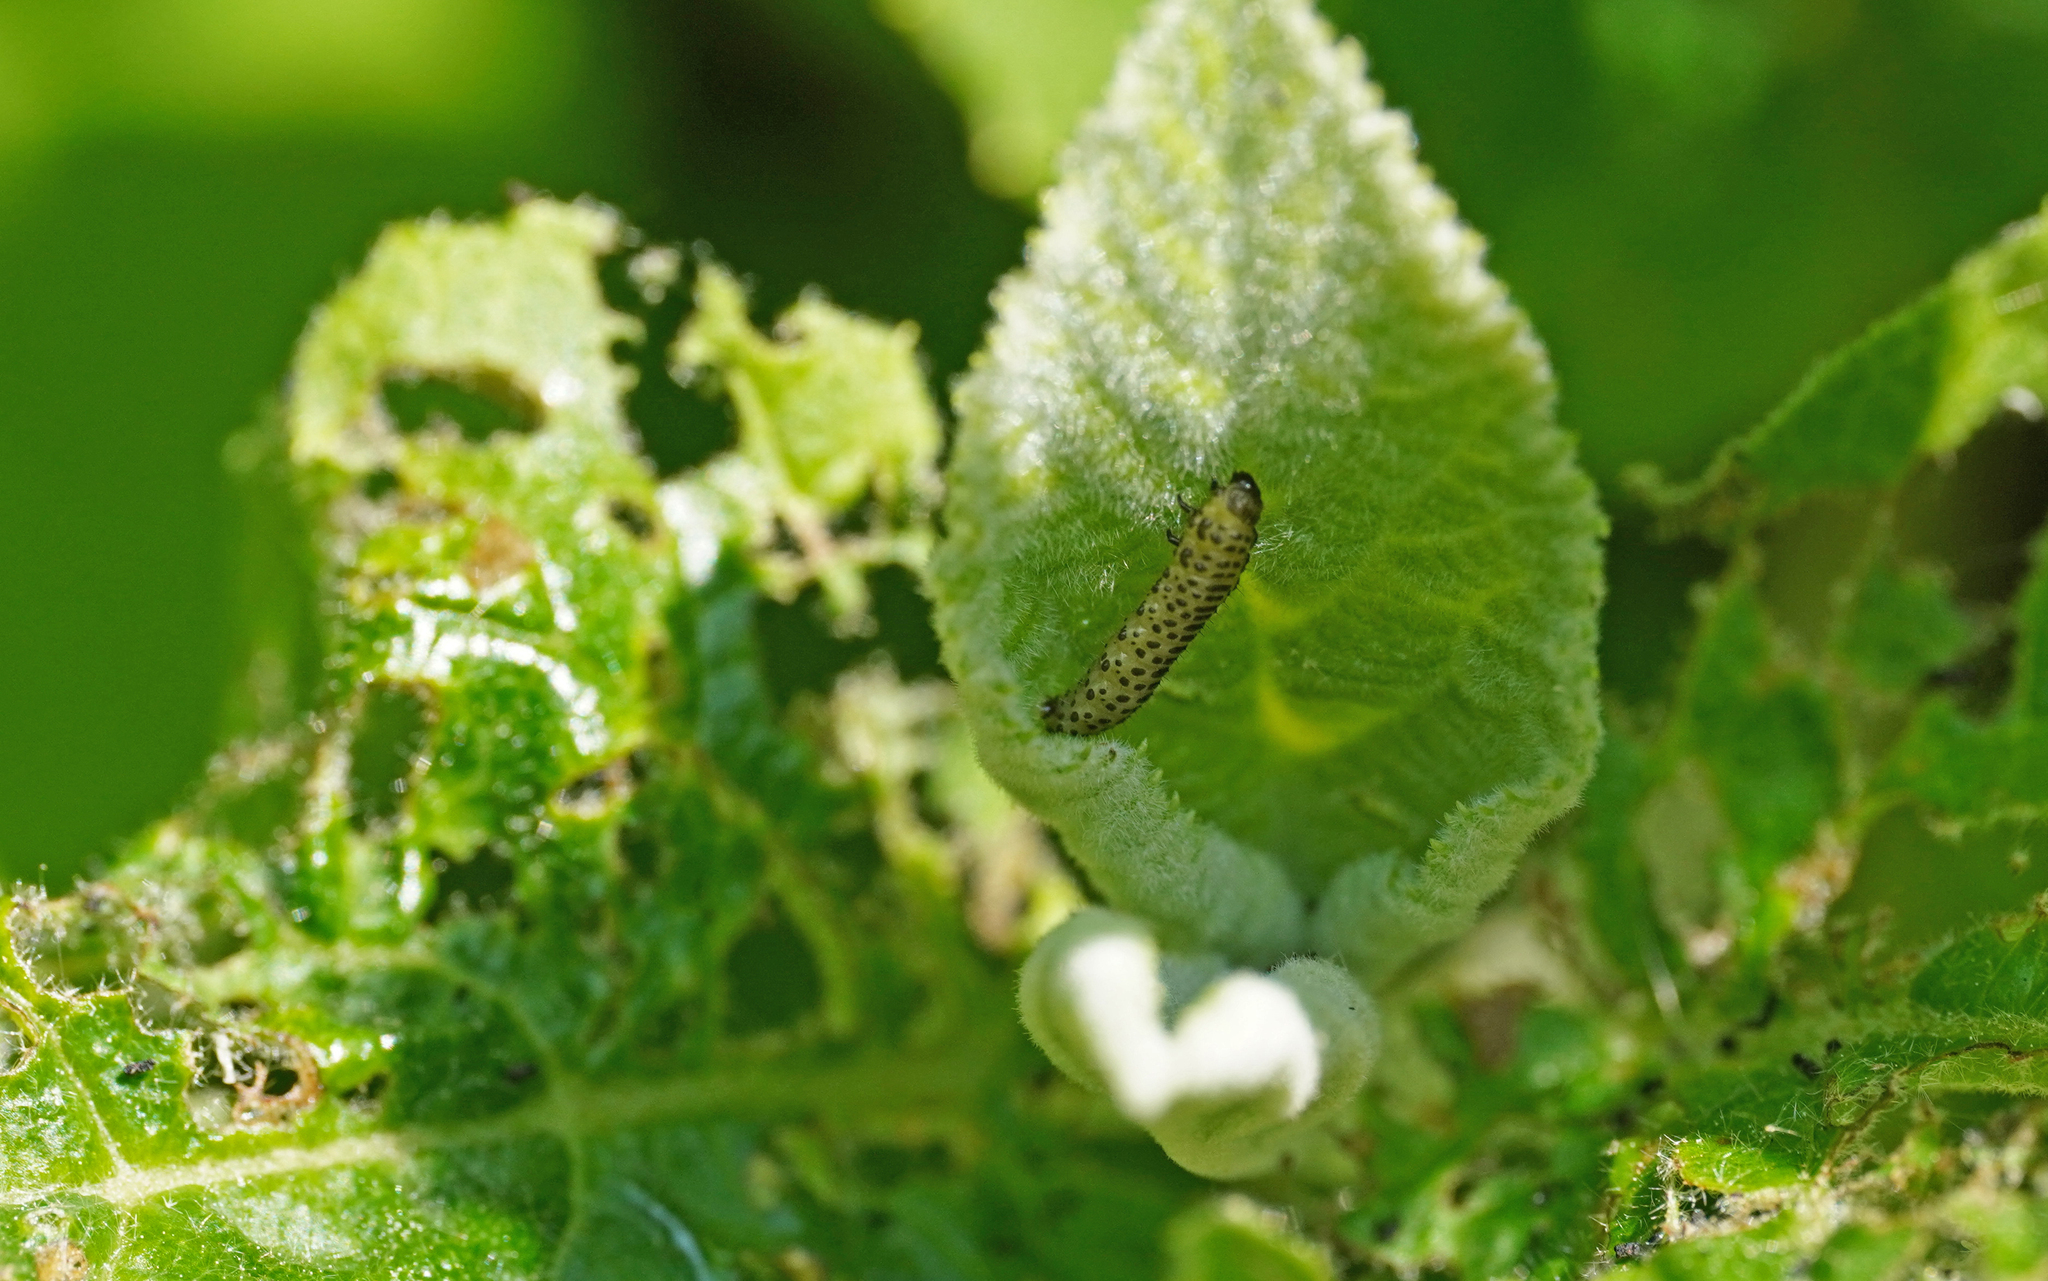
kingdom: Animalia
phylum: Arthropoda
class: Insecta
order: Coleoptera
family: Chrysomelidae
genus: Pyrrhalta
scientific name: Pyrrhalta viburni
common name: Guelder-rose leaf beetle
